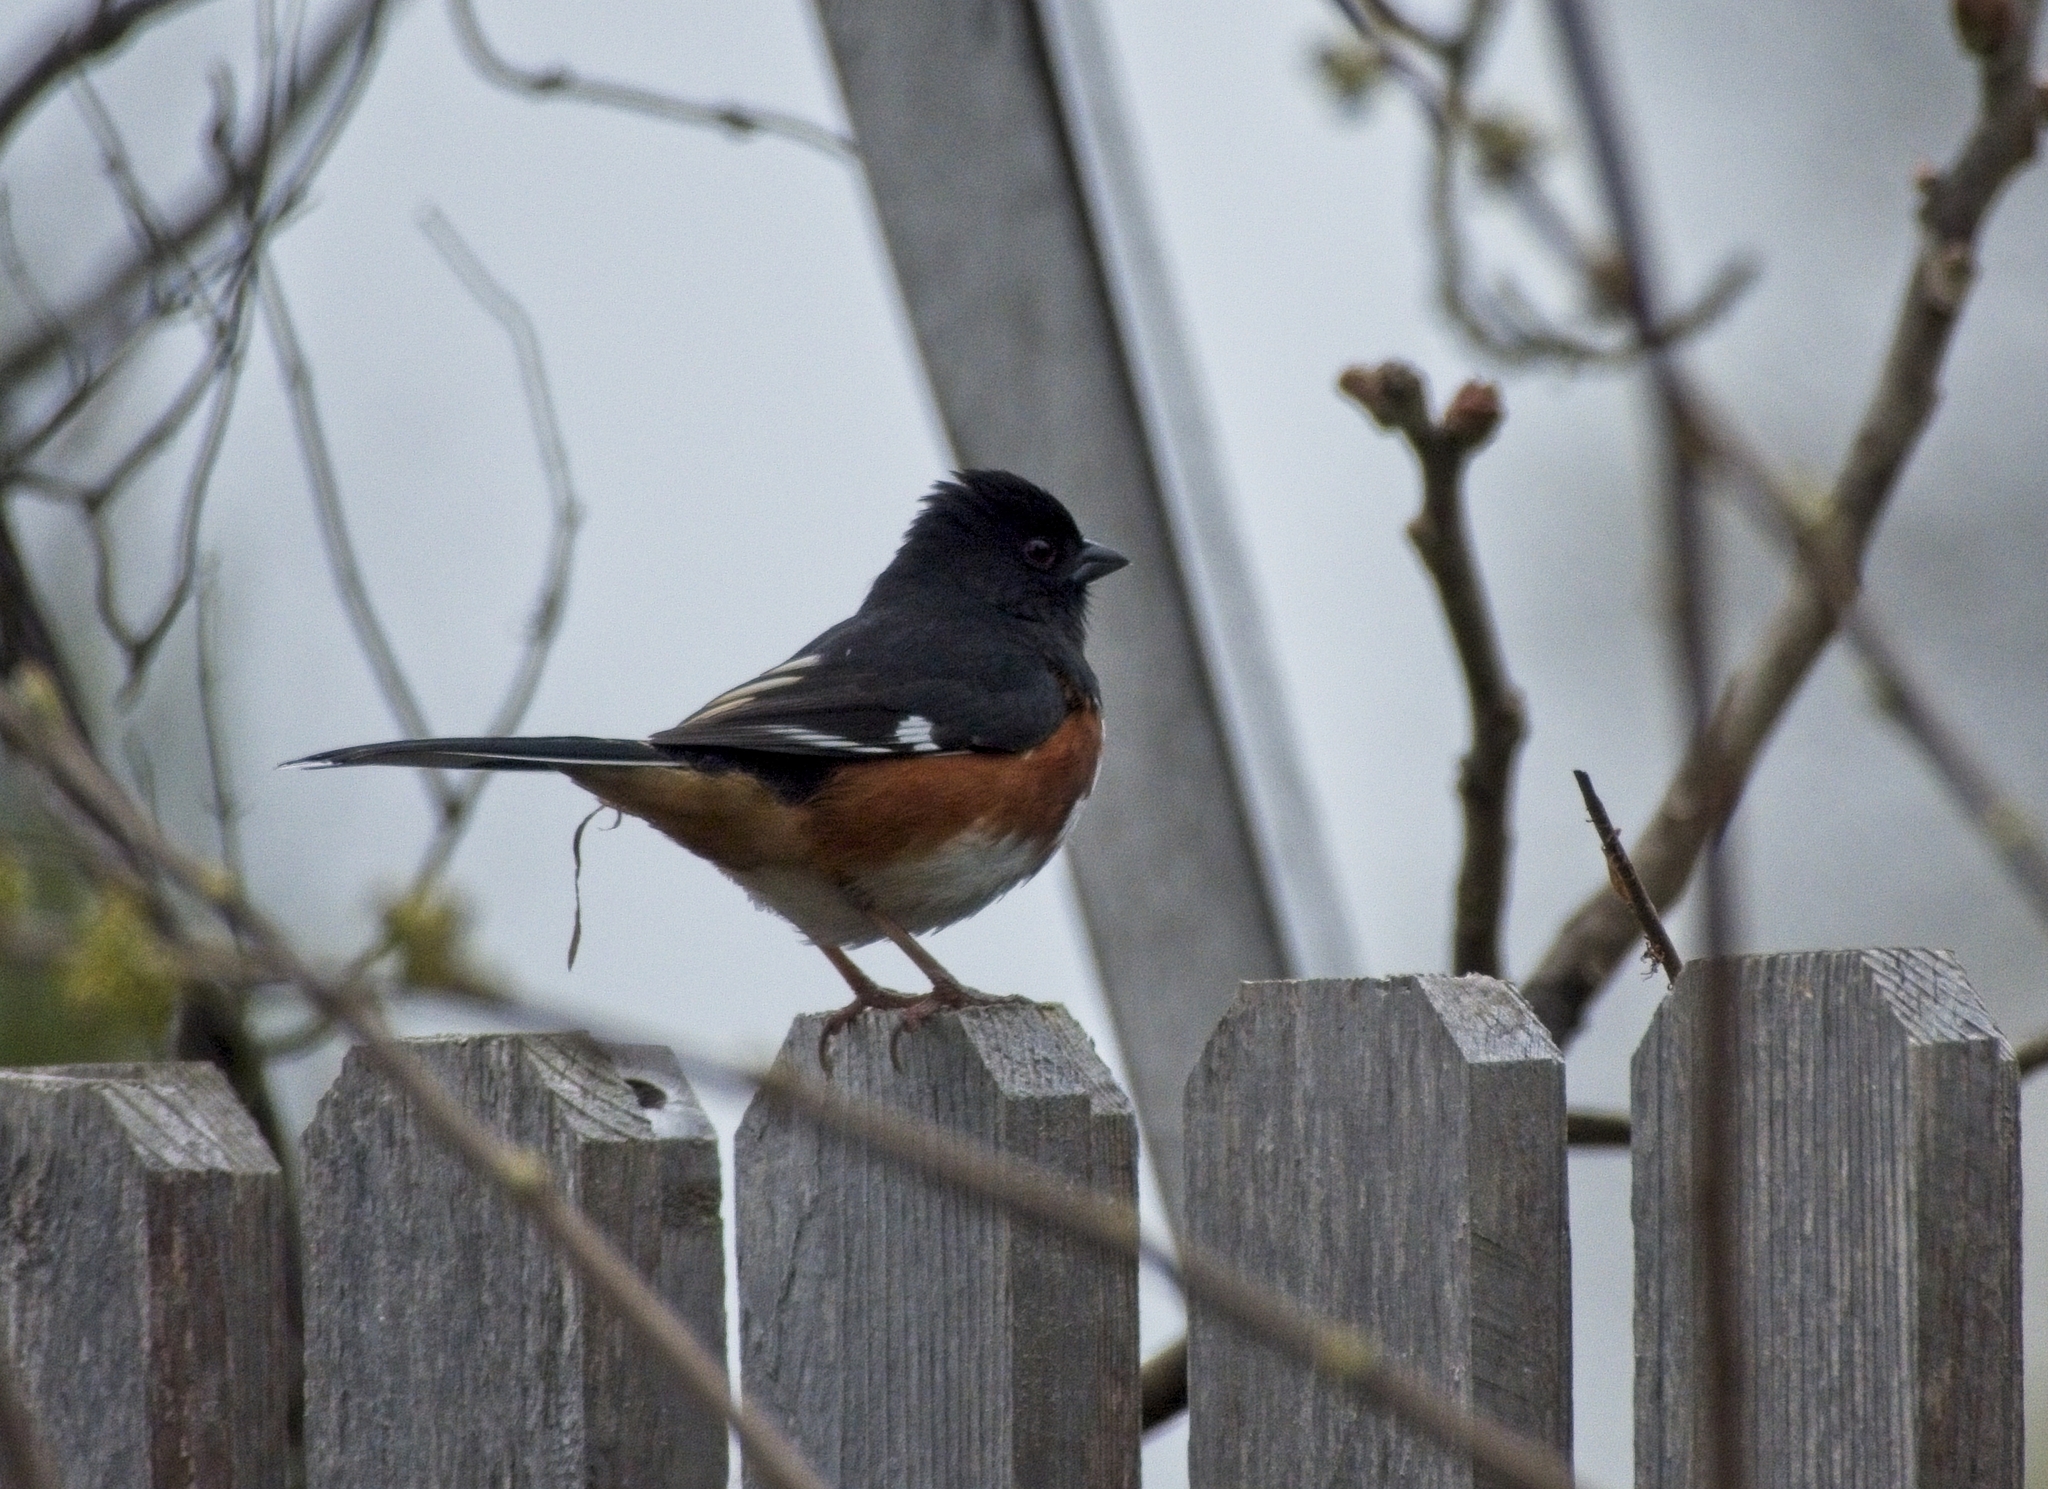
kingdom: Animalia
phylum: Chordata
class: Aves
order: Passeriformes
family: Passerellidae
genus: Pipilo
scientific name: Pipilo erythrophthalmus
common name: Eastern towhee
